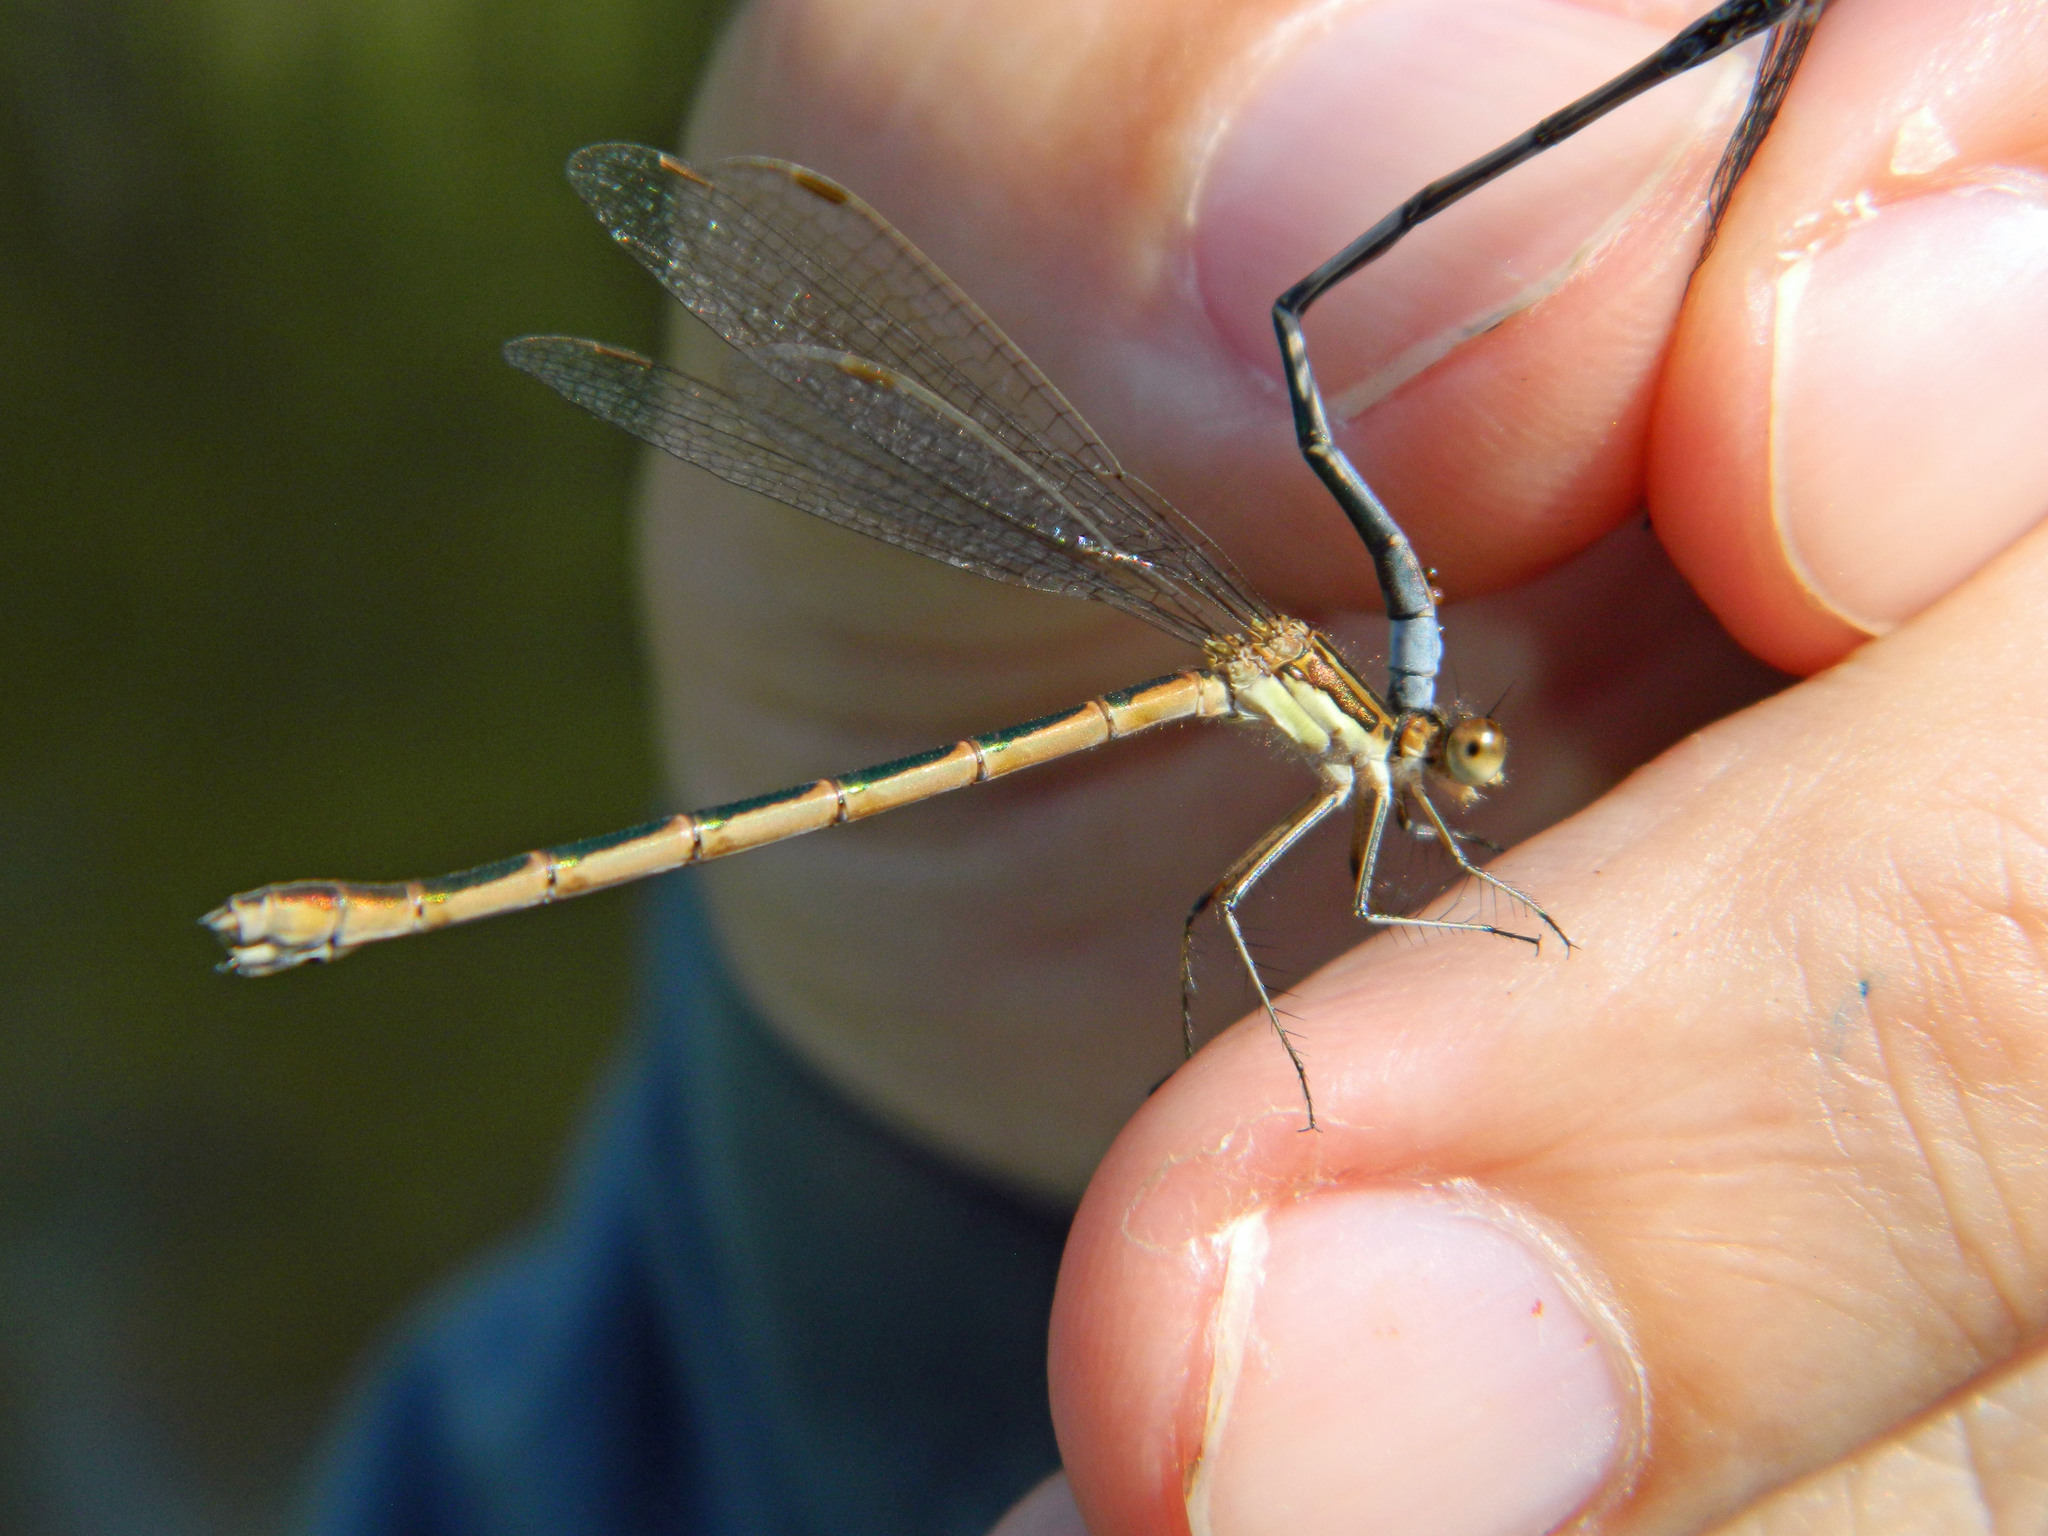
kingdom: Animalia
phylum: Arthropoda
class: Insecta
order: Odonata
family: Lestidae
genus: Lestes
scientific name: Lestes disjunctus
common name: Northern spreadwing
